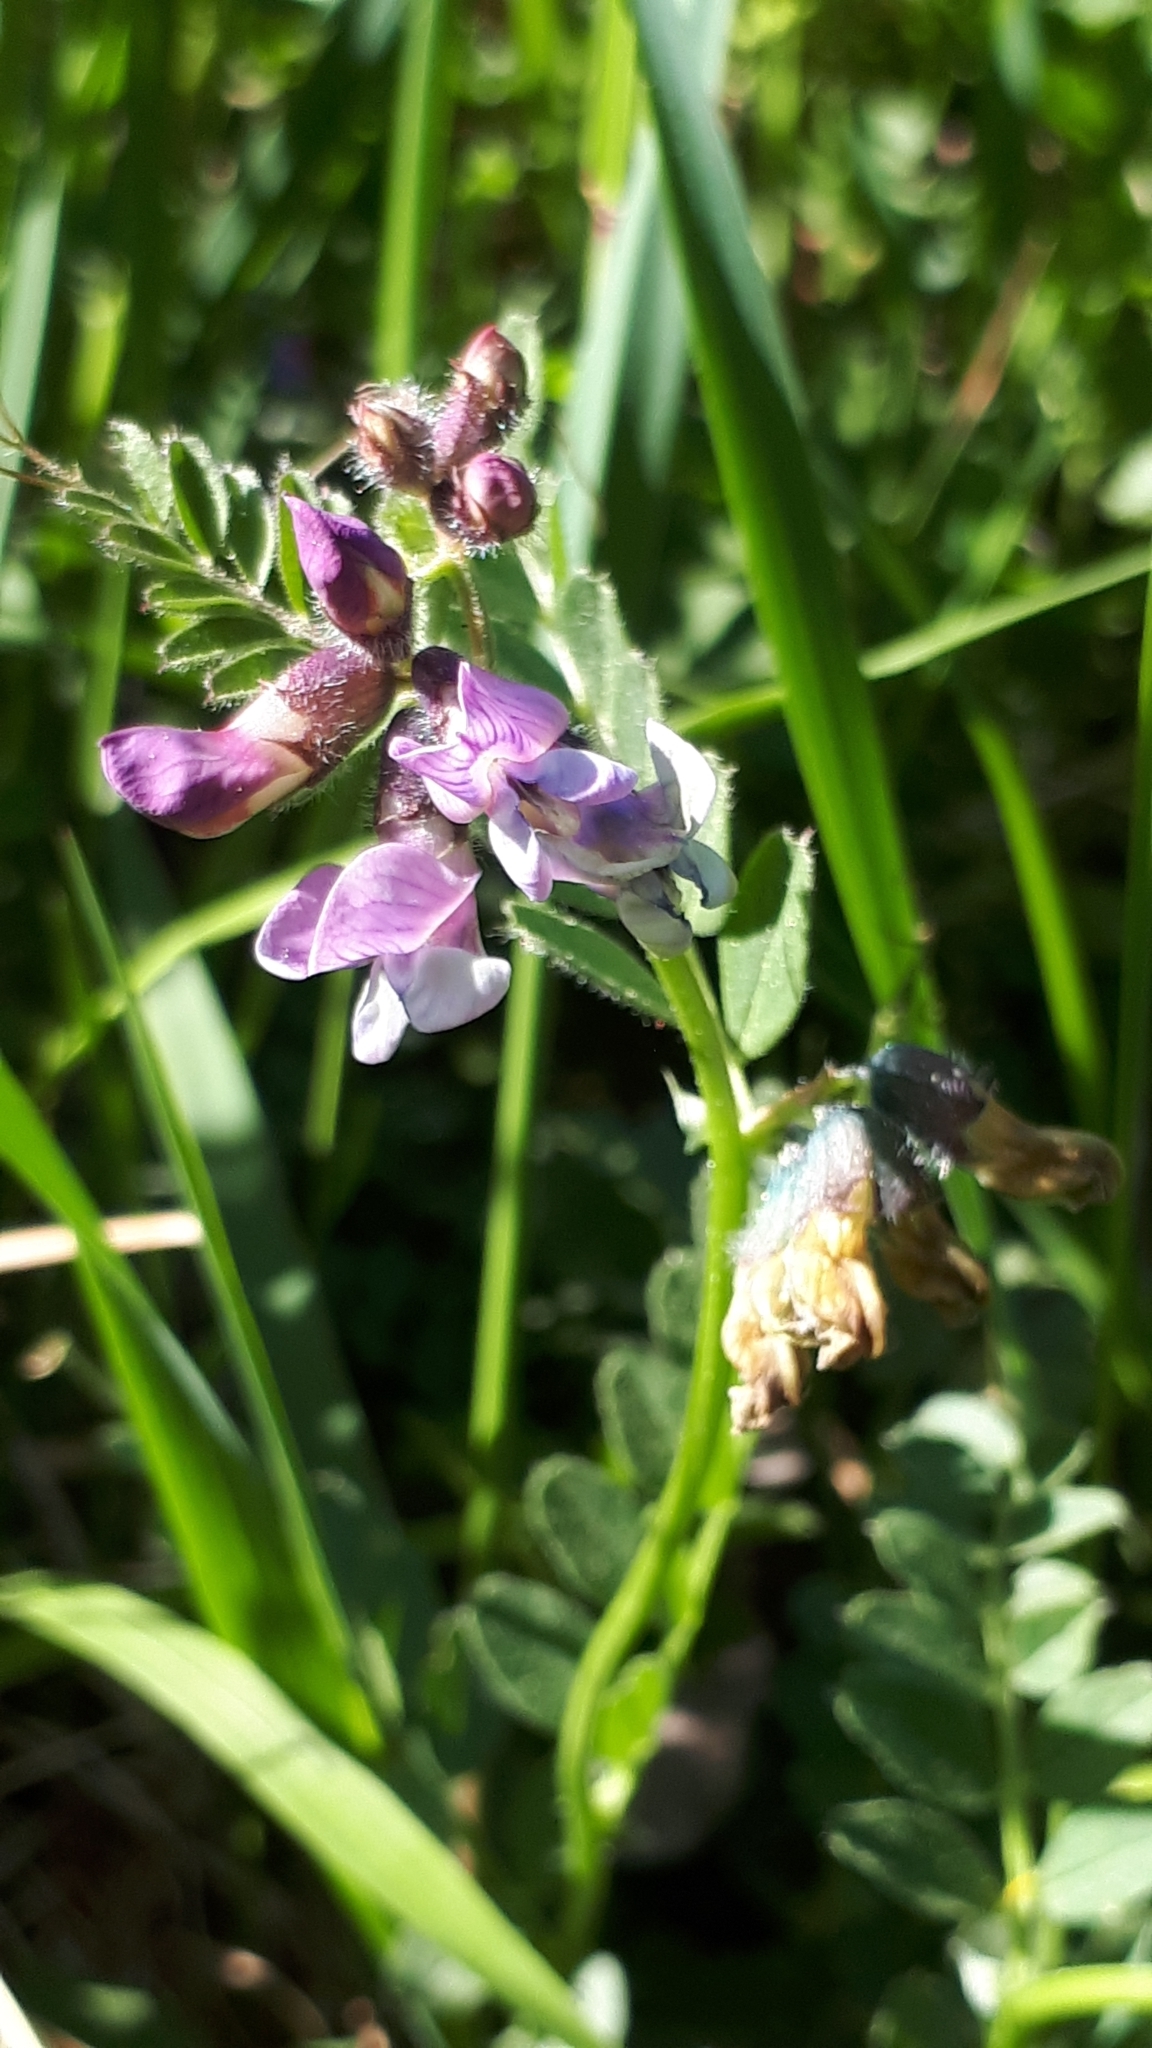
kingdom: Plantae
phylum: Tracheophyta
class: Magnoliopsida
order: Fabales
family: Fabaceae
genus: Vicia
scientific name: Vicia sepium
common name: Bush vetch
